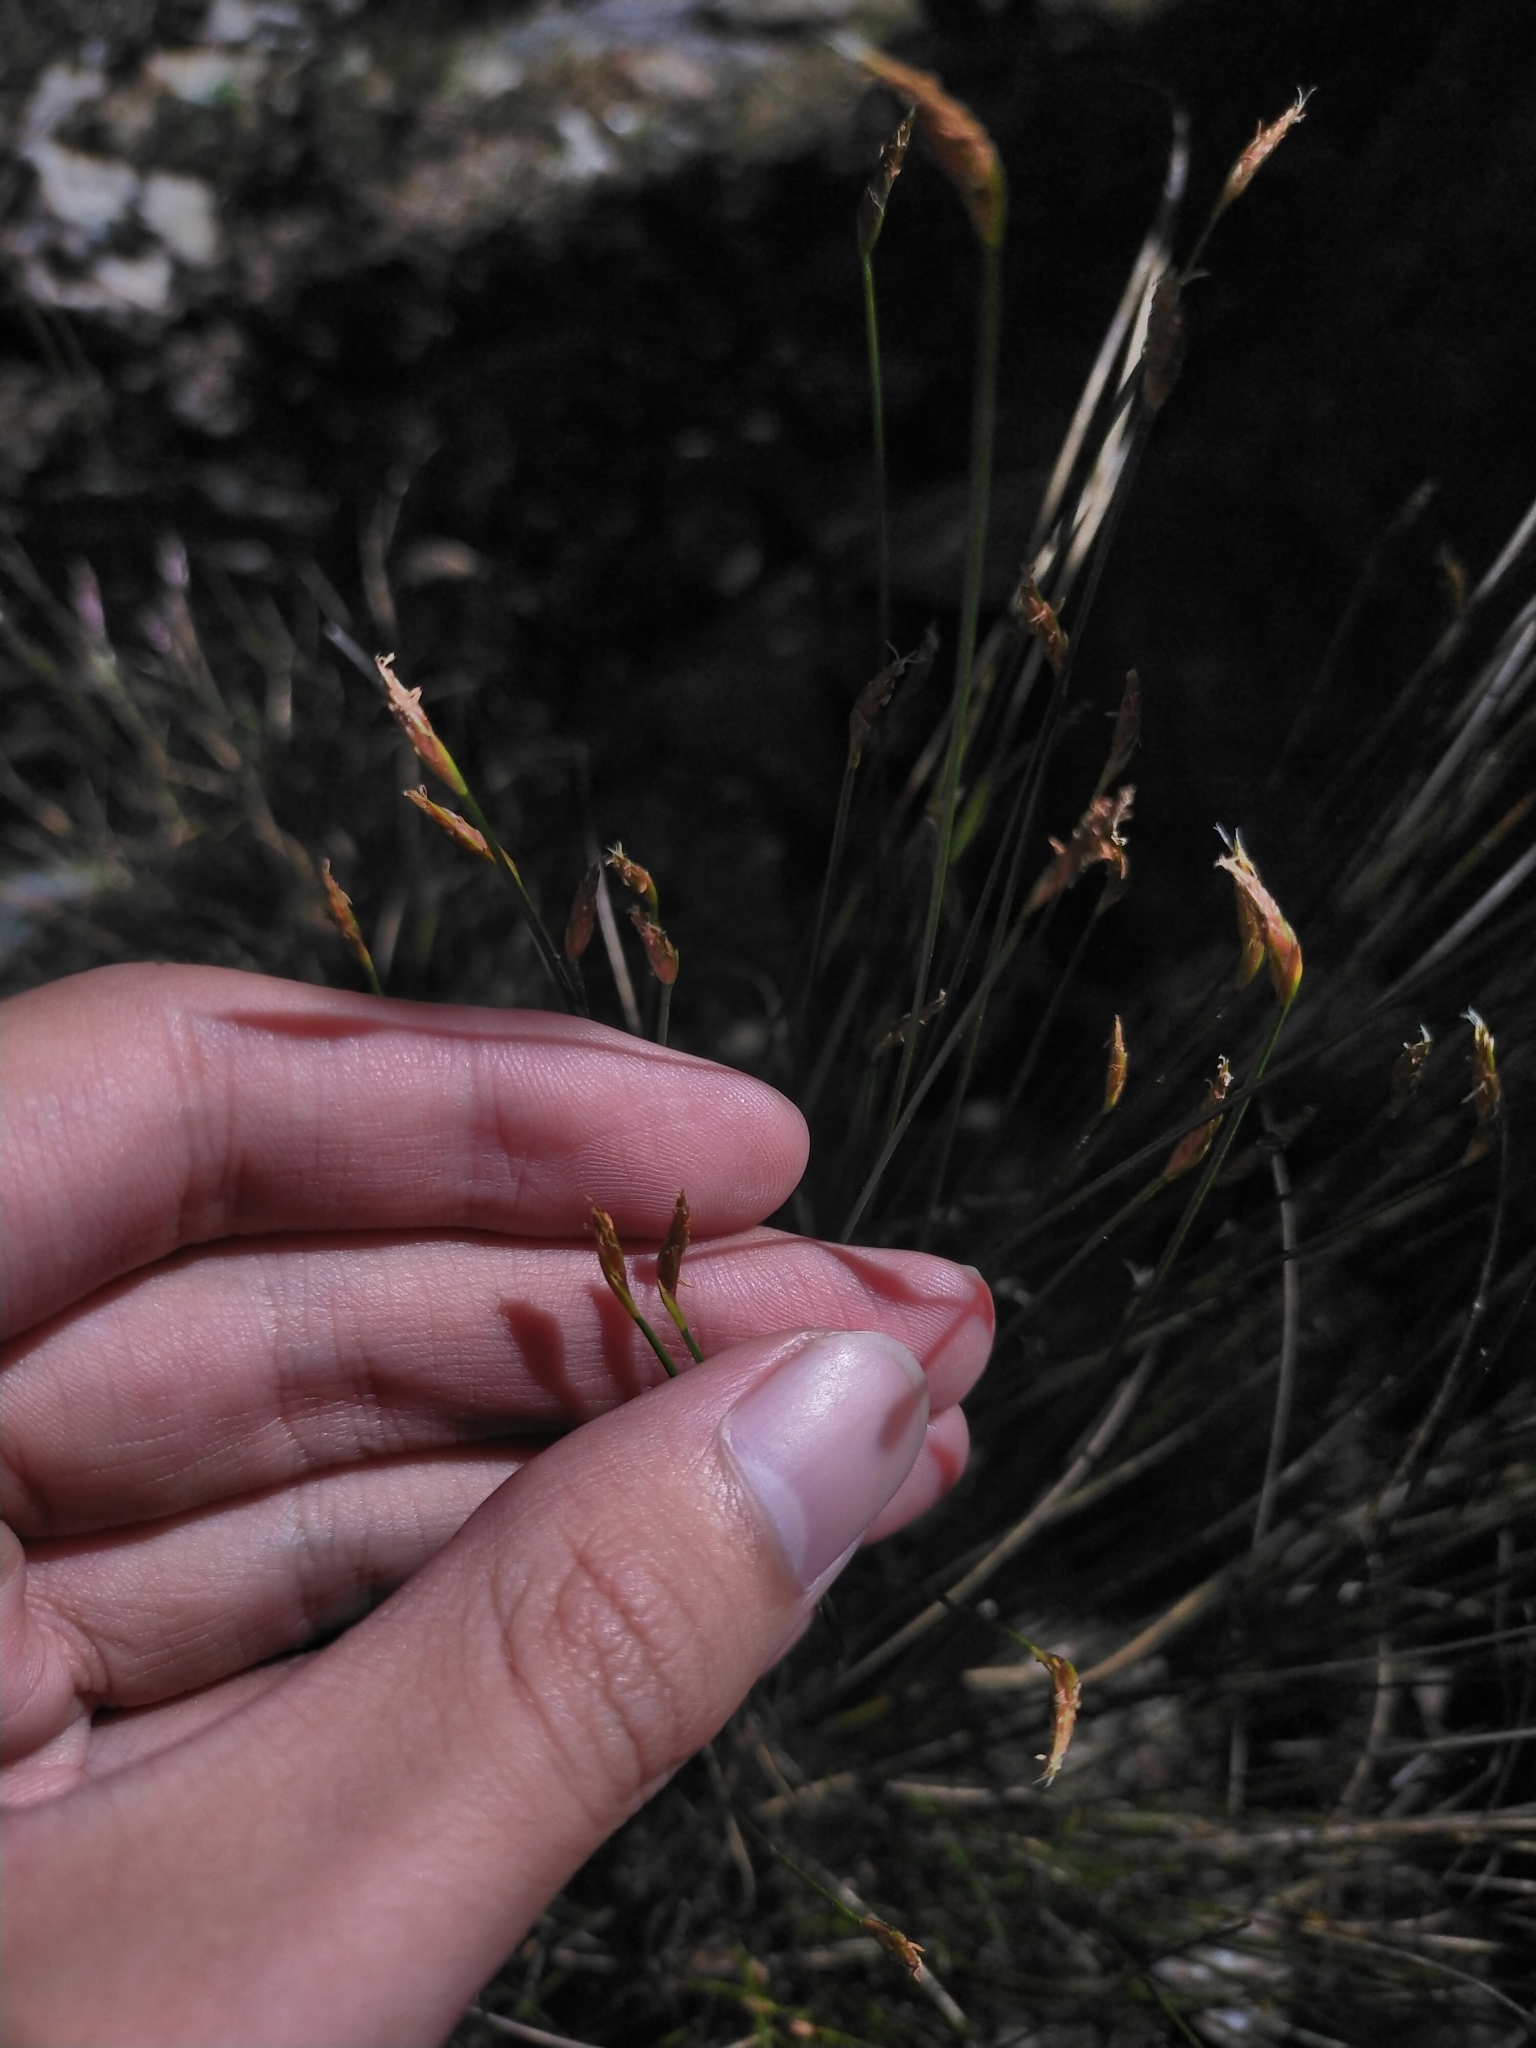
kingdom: Plantae
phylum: Tracheophyta
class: Liliopsida
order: Poales
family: Cyperaceae
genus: Trichophorum
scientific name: Trichophorum subcapitatum
